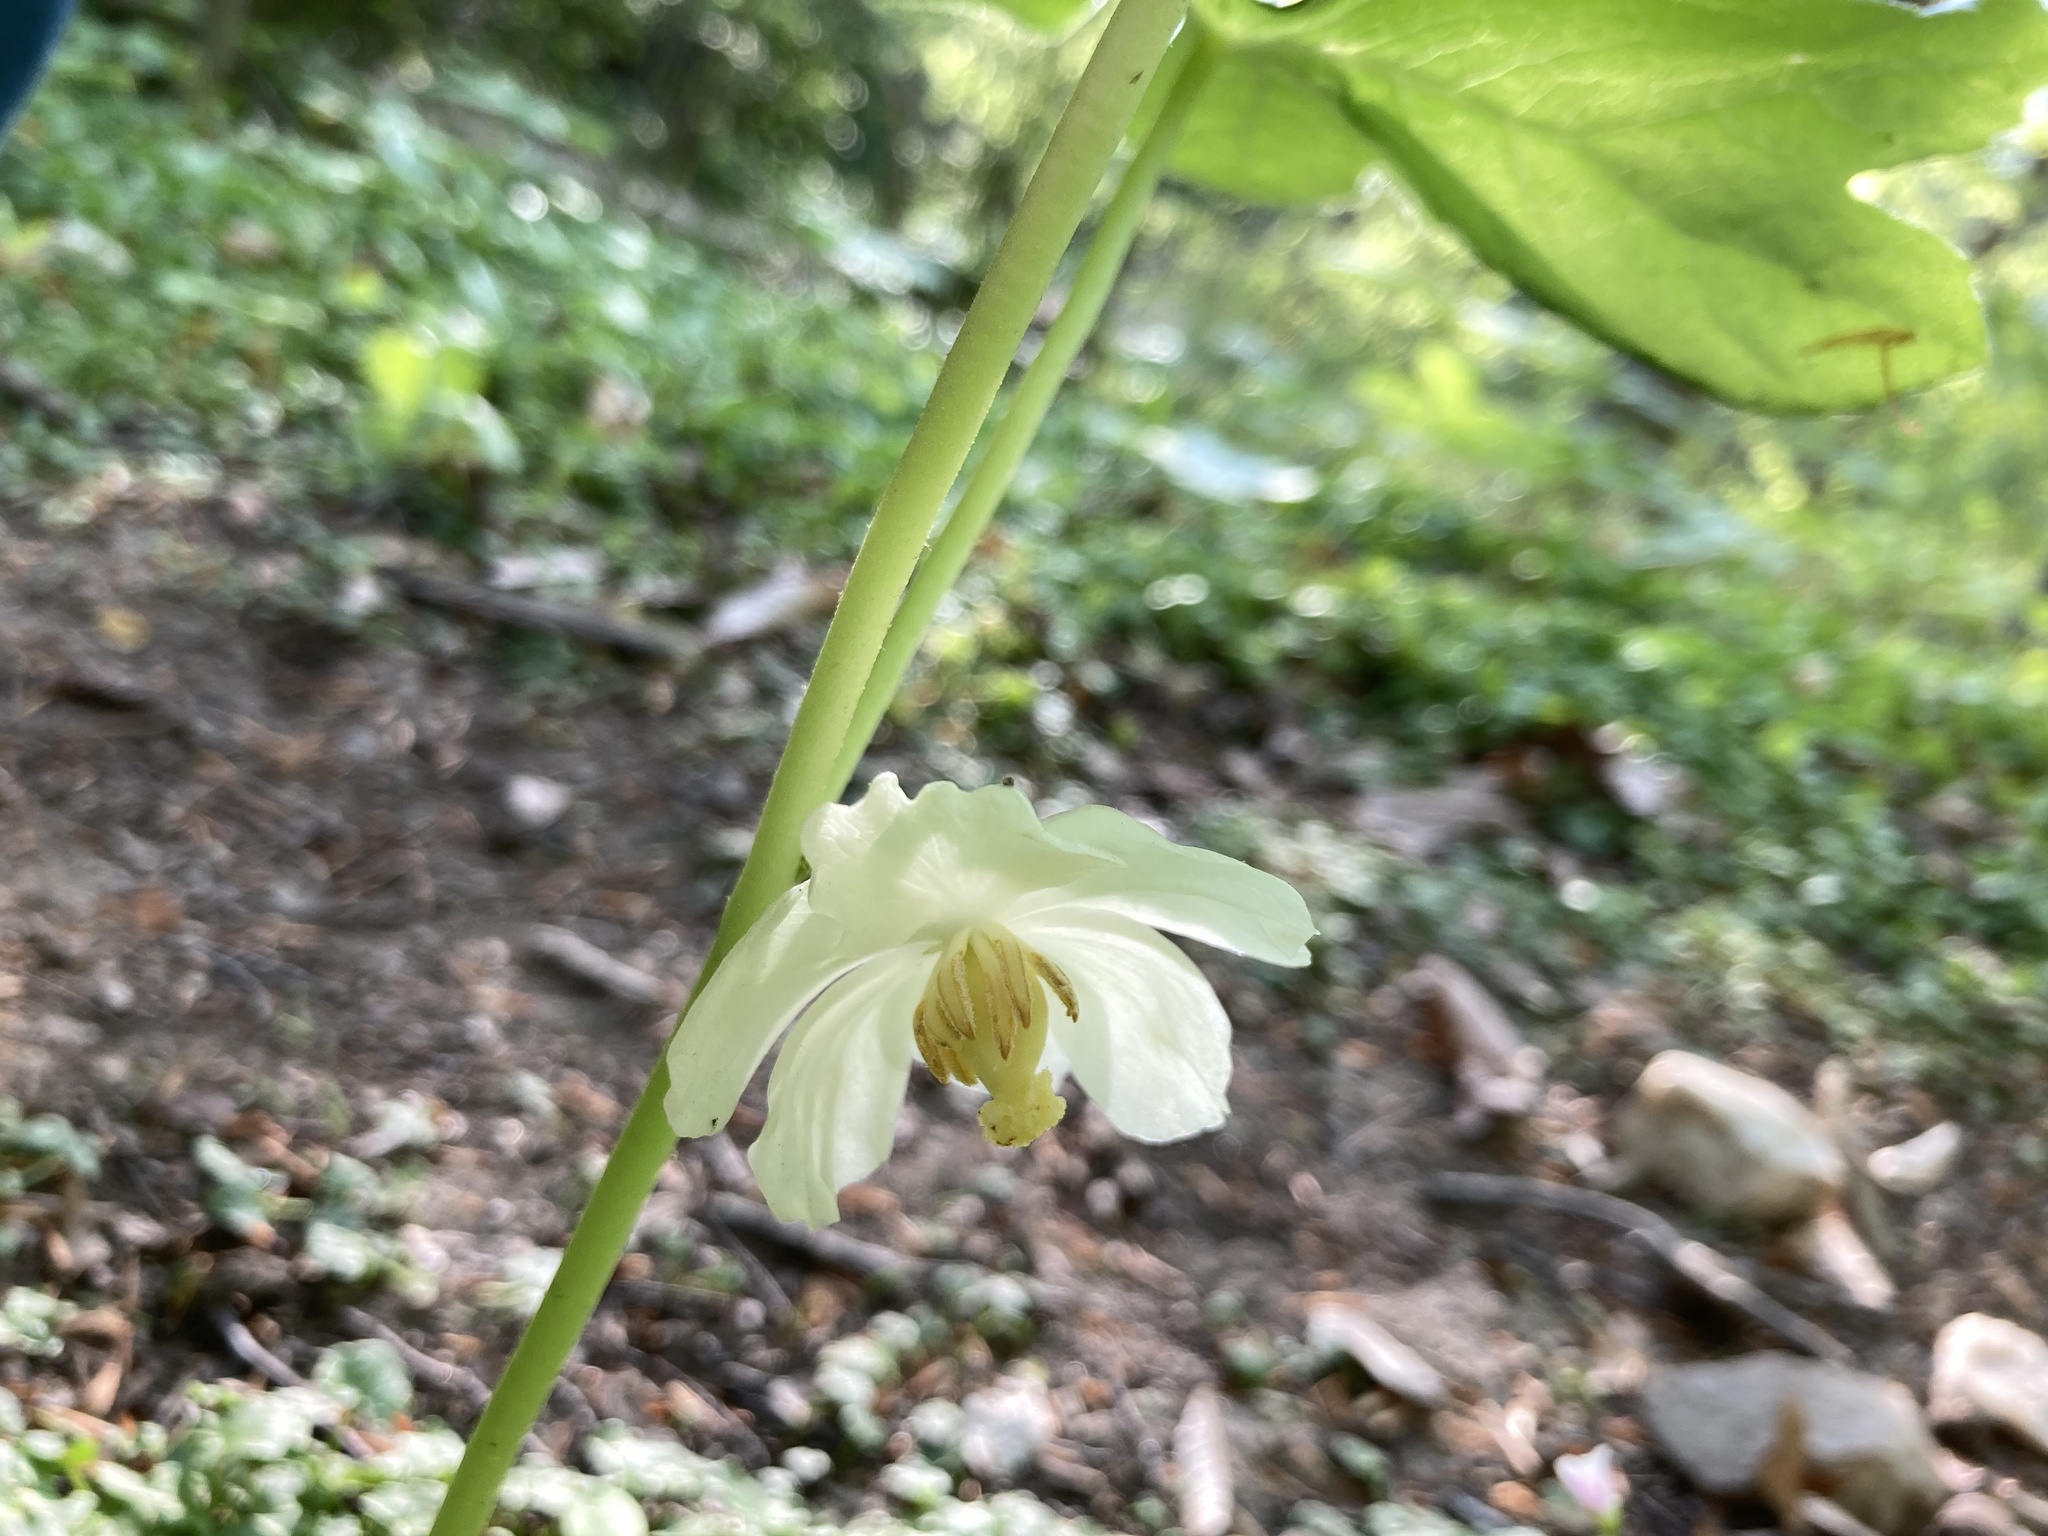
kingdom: Plantae
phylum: Tracheophyta
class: Magnoliopsida
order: Ranunculales
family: Berberidaceae
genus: Podophyllum
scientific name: Podophyllum peltatum
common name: Wild mandrake
